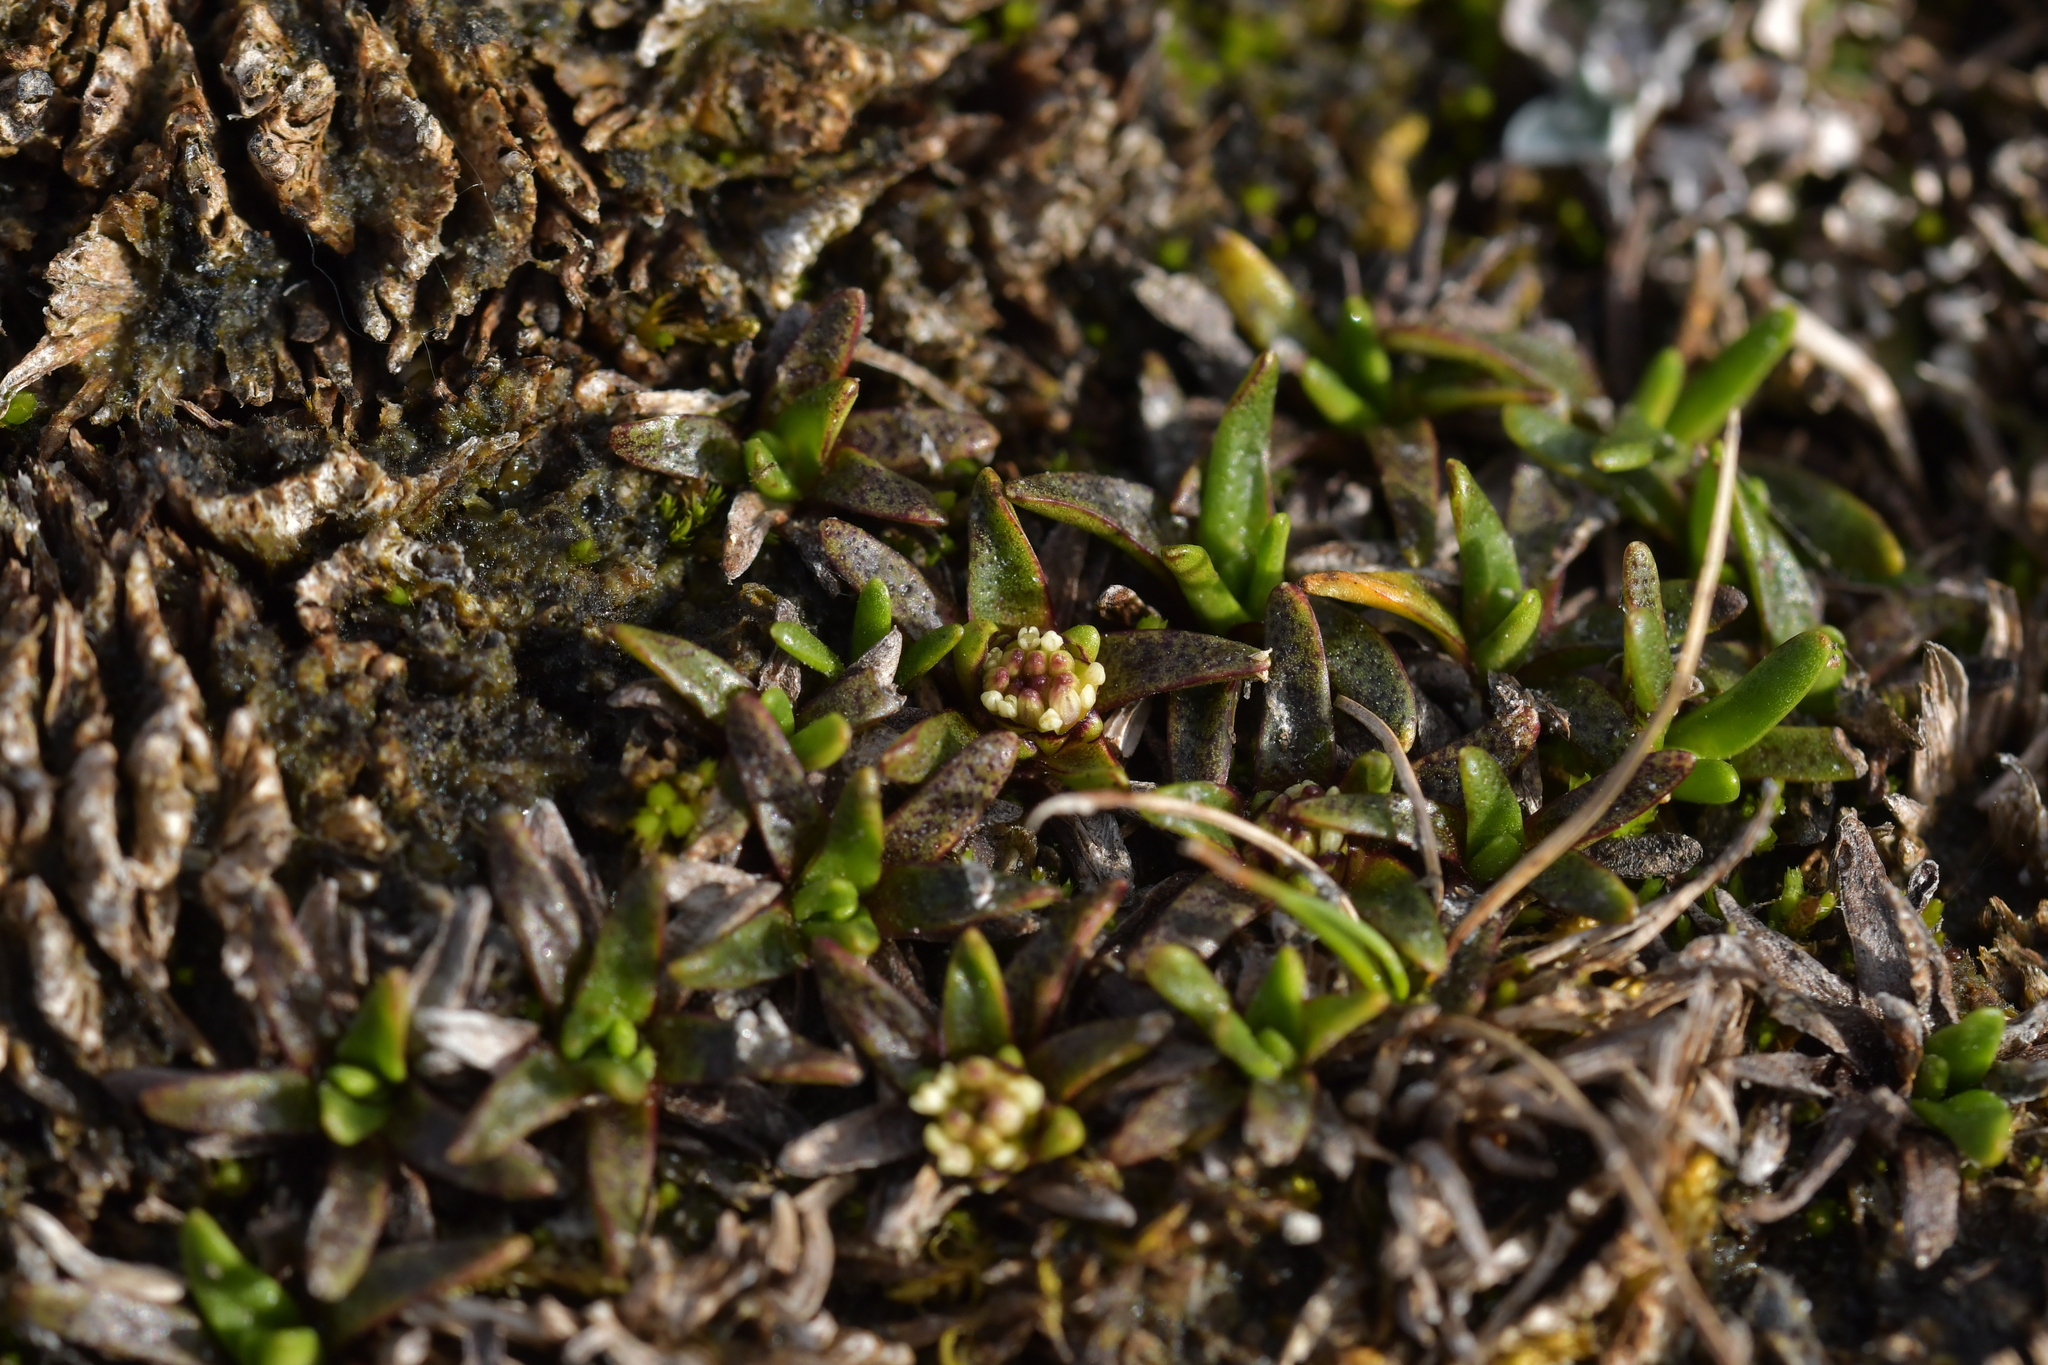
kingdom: Plantae
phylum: Tracheophyta
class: Magnoliopsida
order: Asterales
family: Asteraceae
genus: Abrotanella
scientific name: Abrotanella caespitosa
